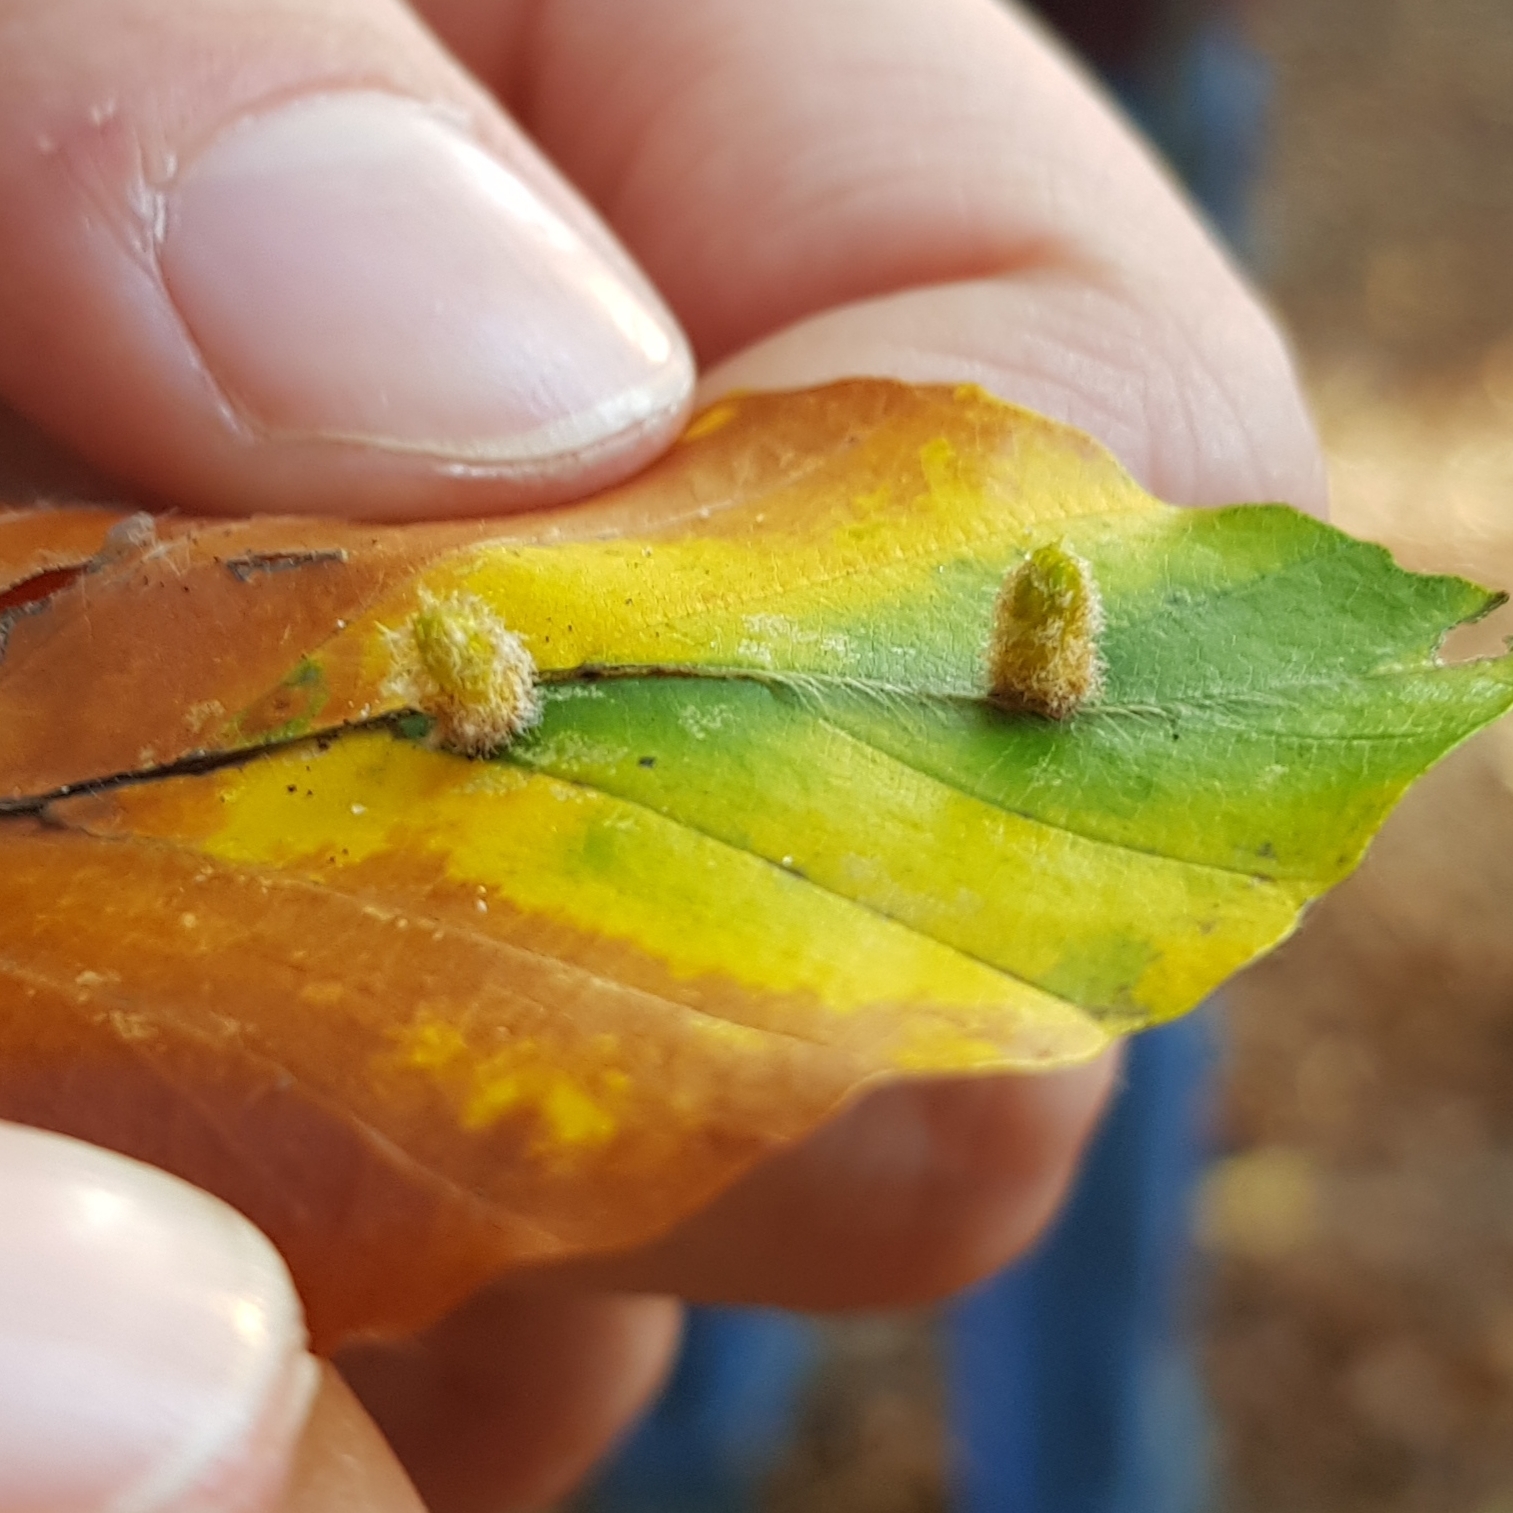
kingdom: Animalia
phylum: Arthropoda
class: Insecta
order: Diptera
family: Cecidomyiidae
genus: Hartigiola
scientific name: Hartigiola annulipes
